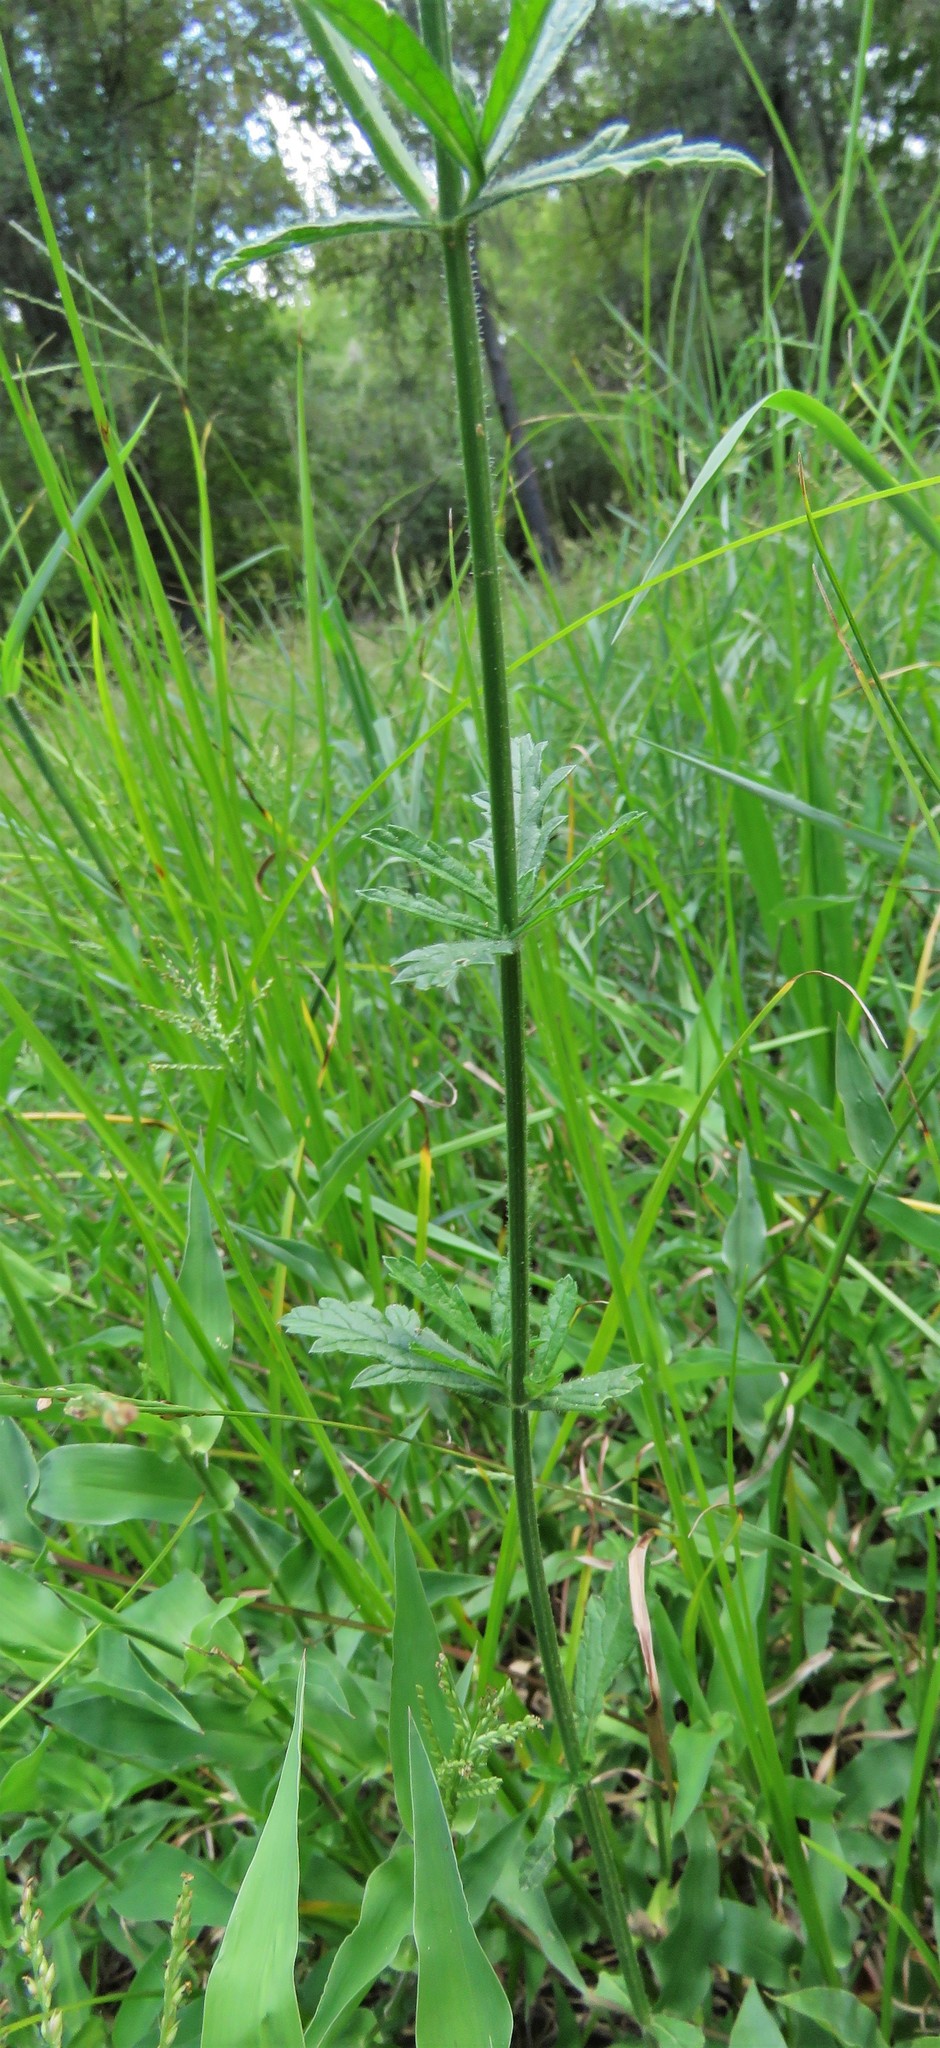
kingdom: Plantae
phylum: Tracheophyta
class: Magnoliopsida
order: Lamiales
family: Verbenaceae
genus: Verbena
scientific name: Verbena xutha
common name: Gulf vervain
